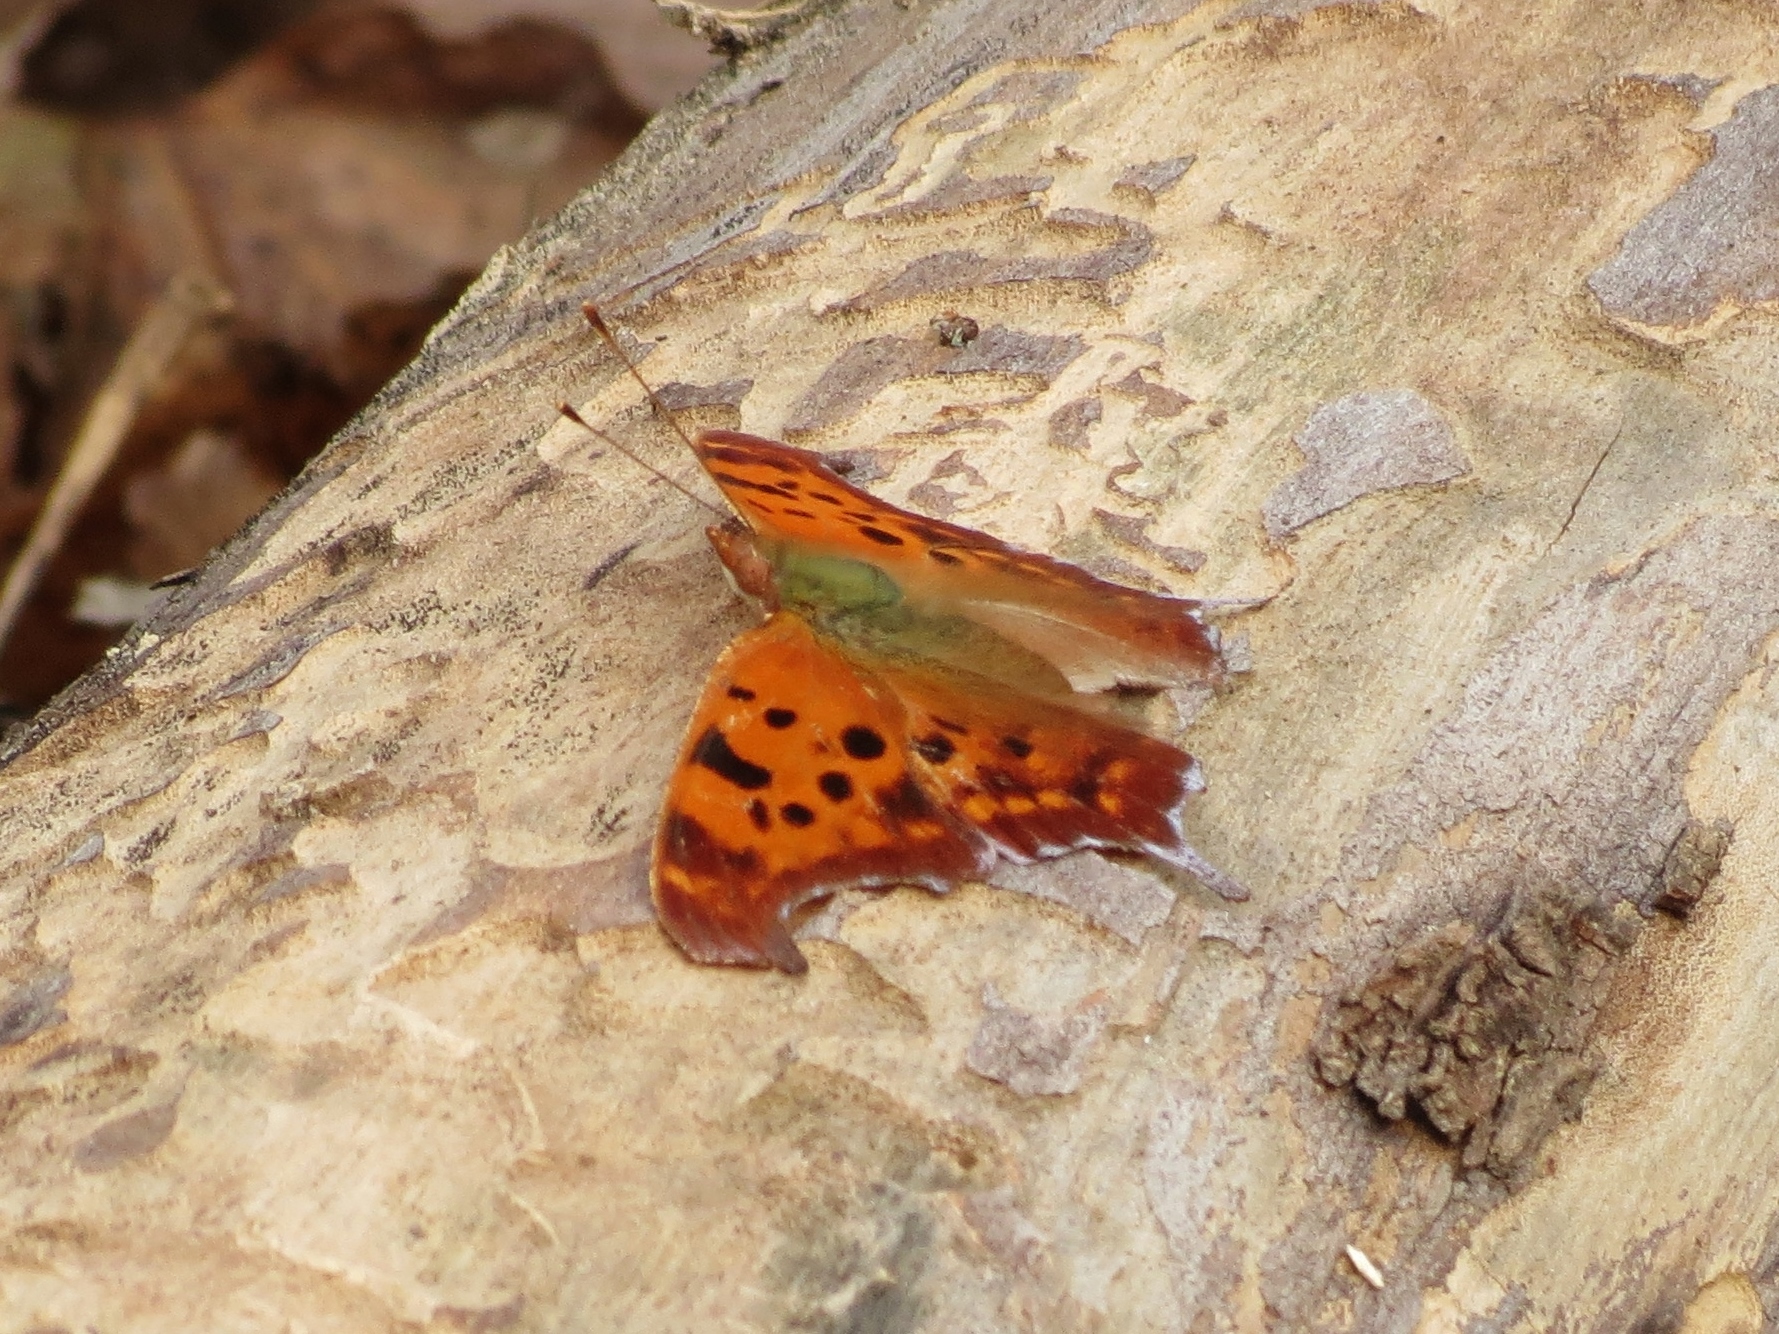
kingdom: Animalia
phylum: Arthropoda
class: Insecta
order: Lepidoptera
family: Nymphalidae
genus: Polygonia
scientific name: Polygonia interrogationis
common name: Question mark
